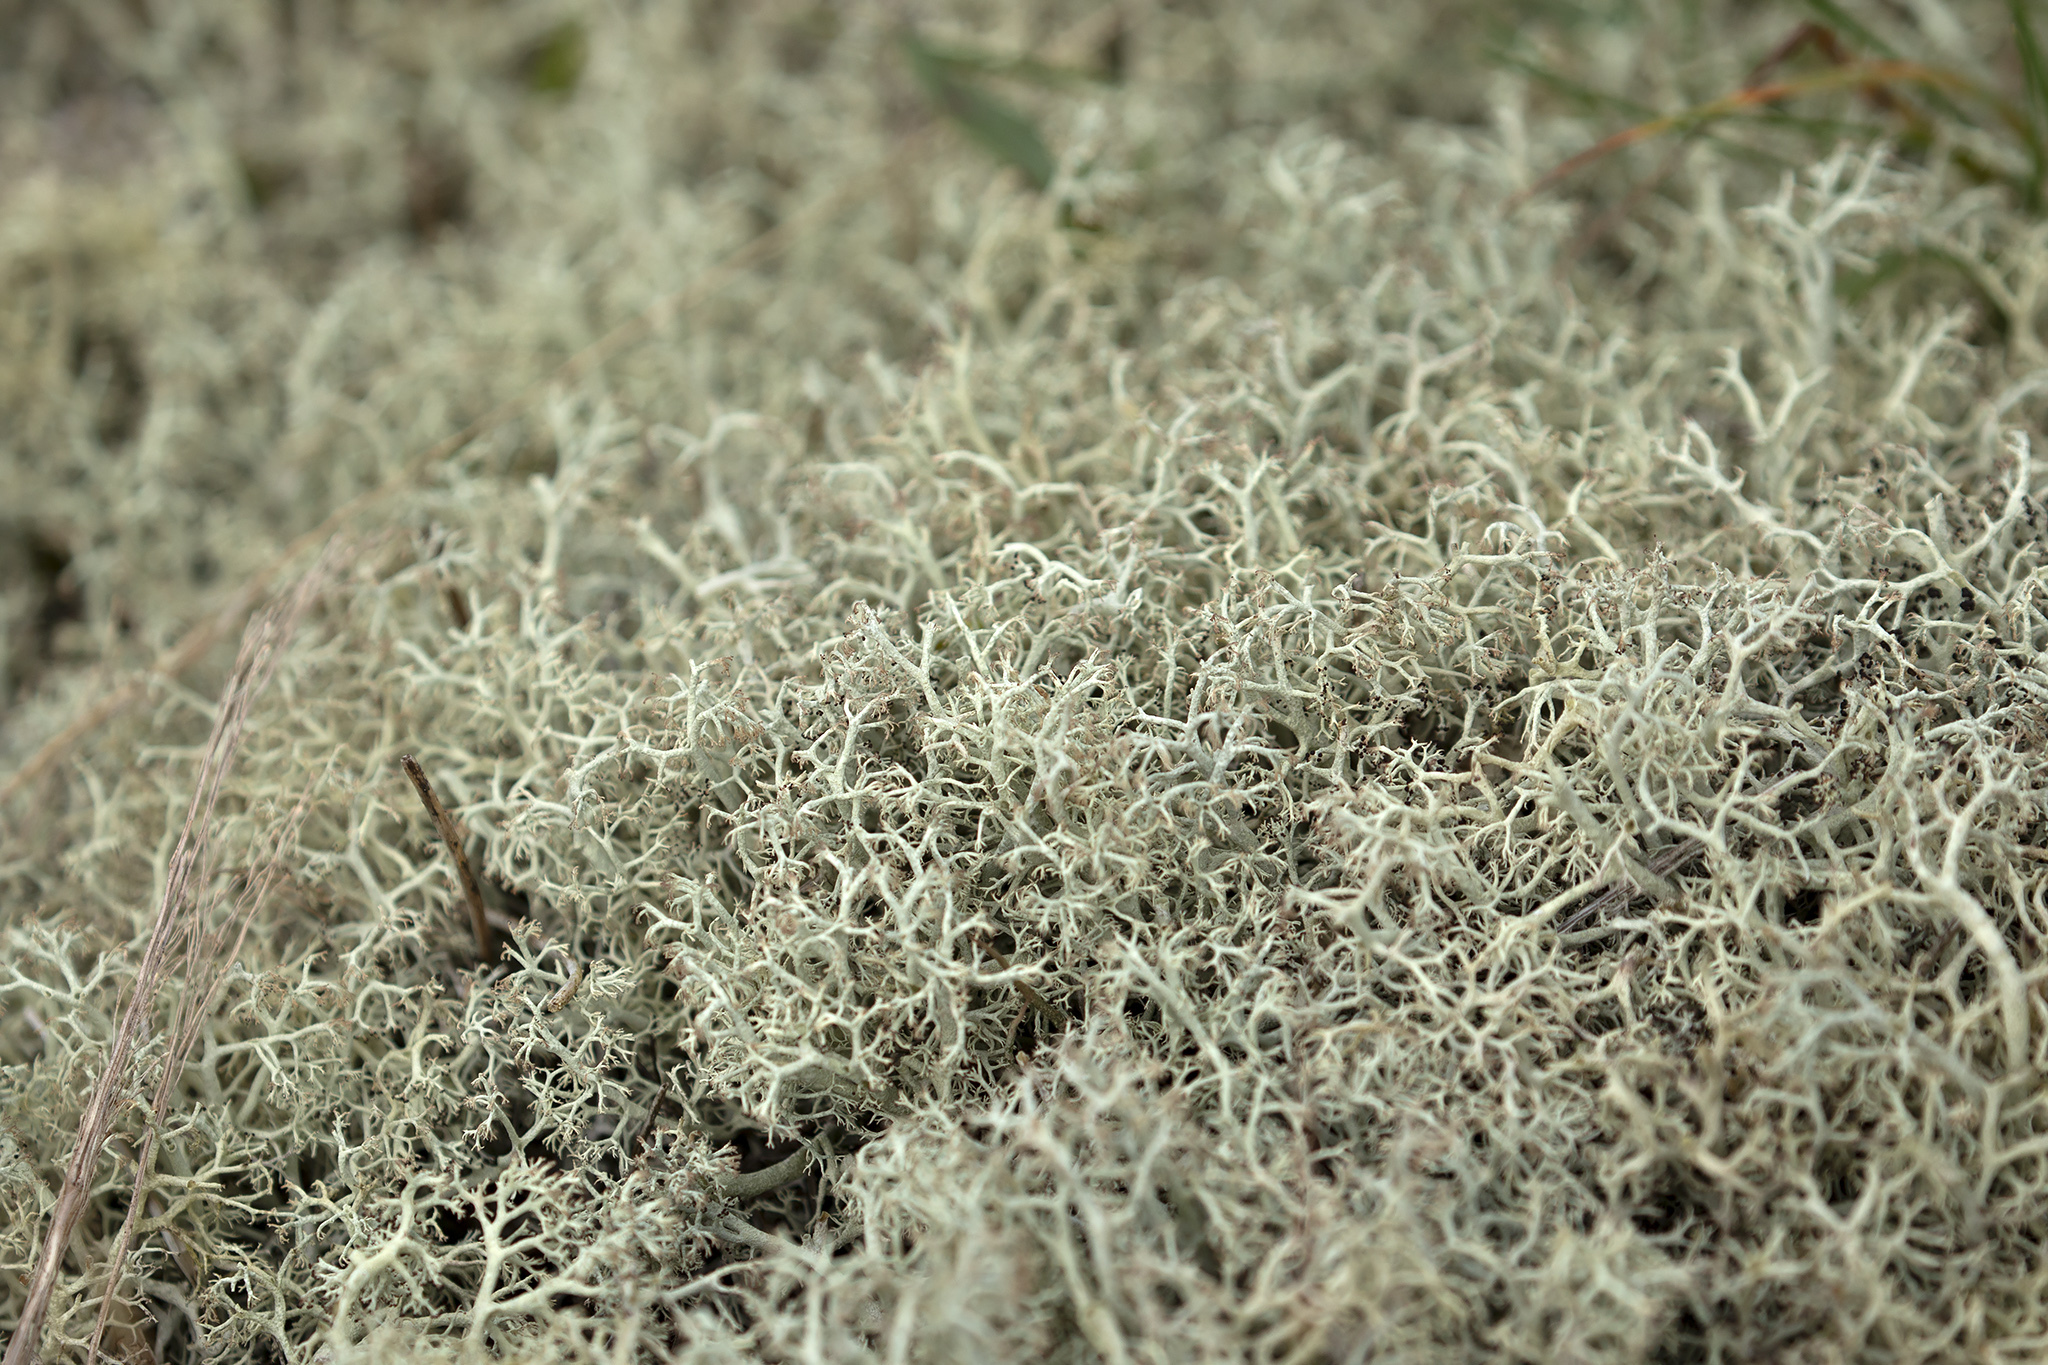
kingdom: Fungi
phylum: Ascomycota
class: Lecanoromycetes
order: Lecanorales
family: Cladoniaceae
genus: Cladonia
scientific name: Cladonia portentosa
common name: Reindeer lichen
